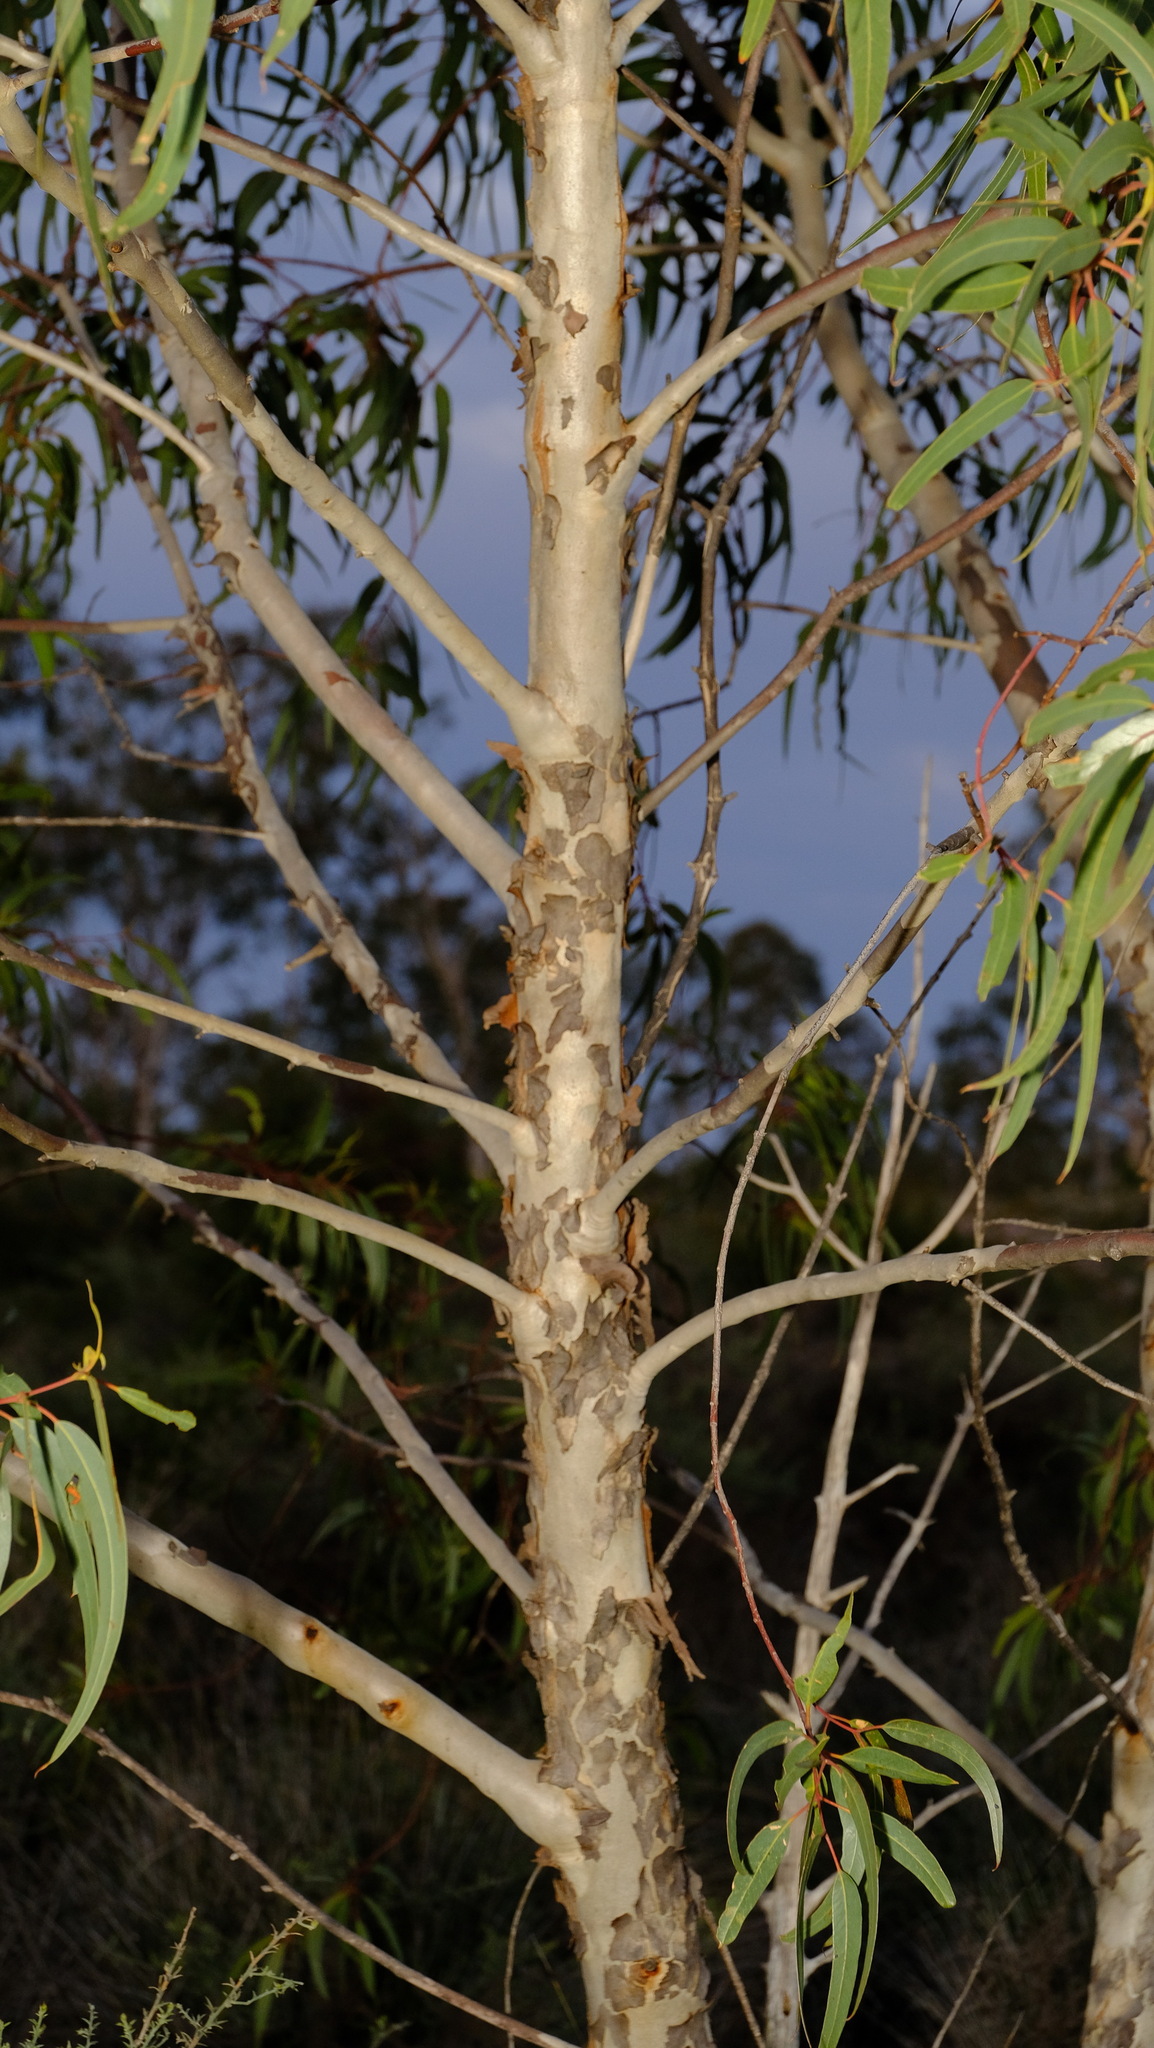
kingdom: Plantae
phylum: Tracheophyta
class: Magnoliopsida
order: Myrtales
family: Myrtaceae
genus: Eucalyptus
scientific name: Eucalyptus erythrocorys
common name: Bookara gum
